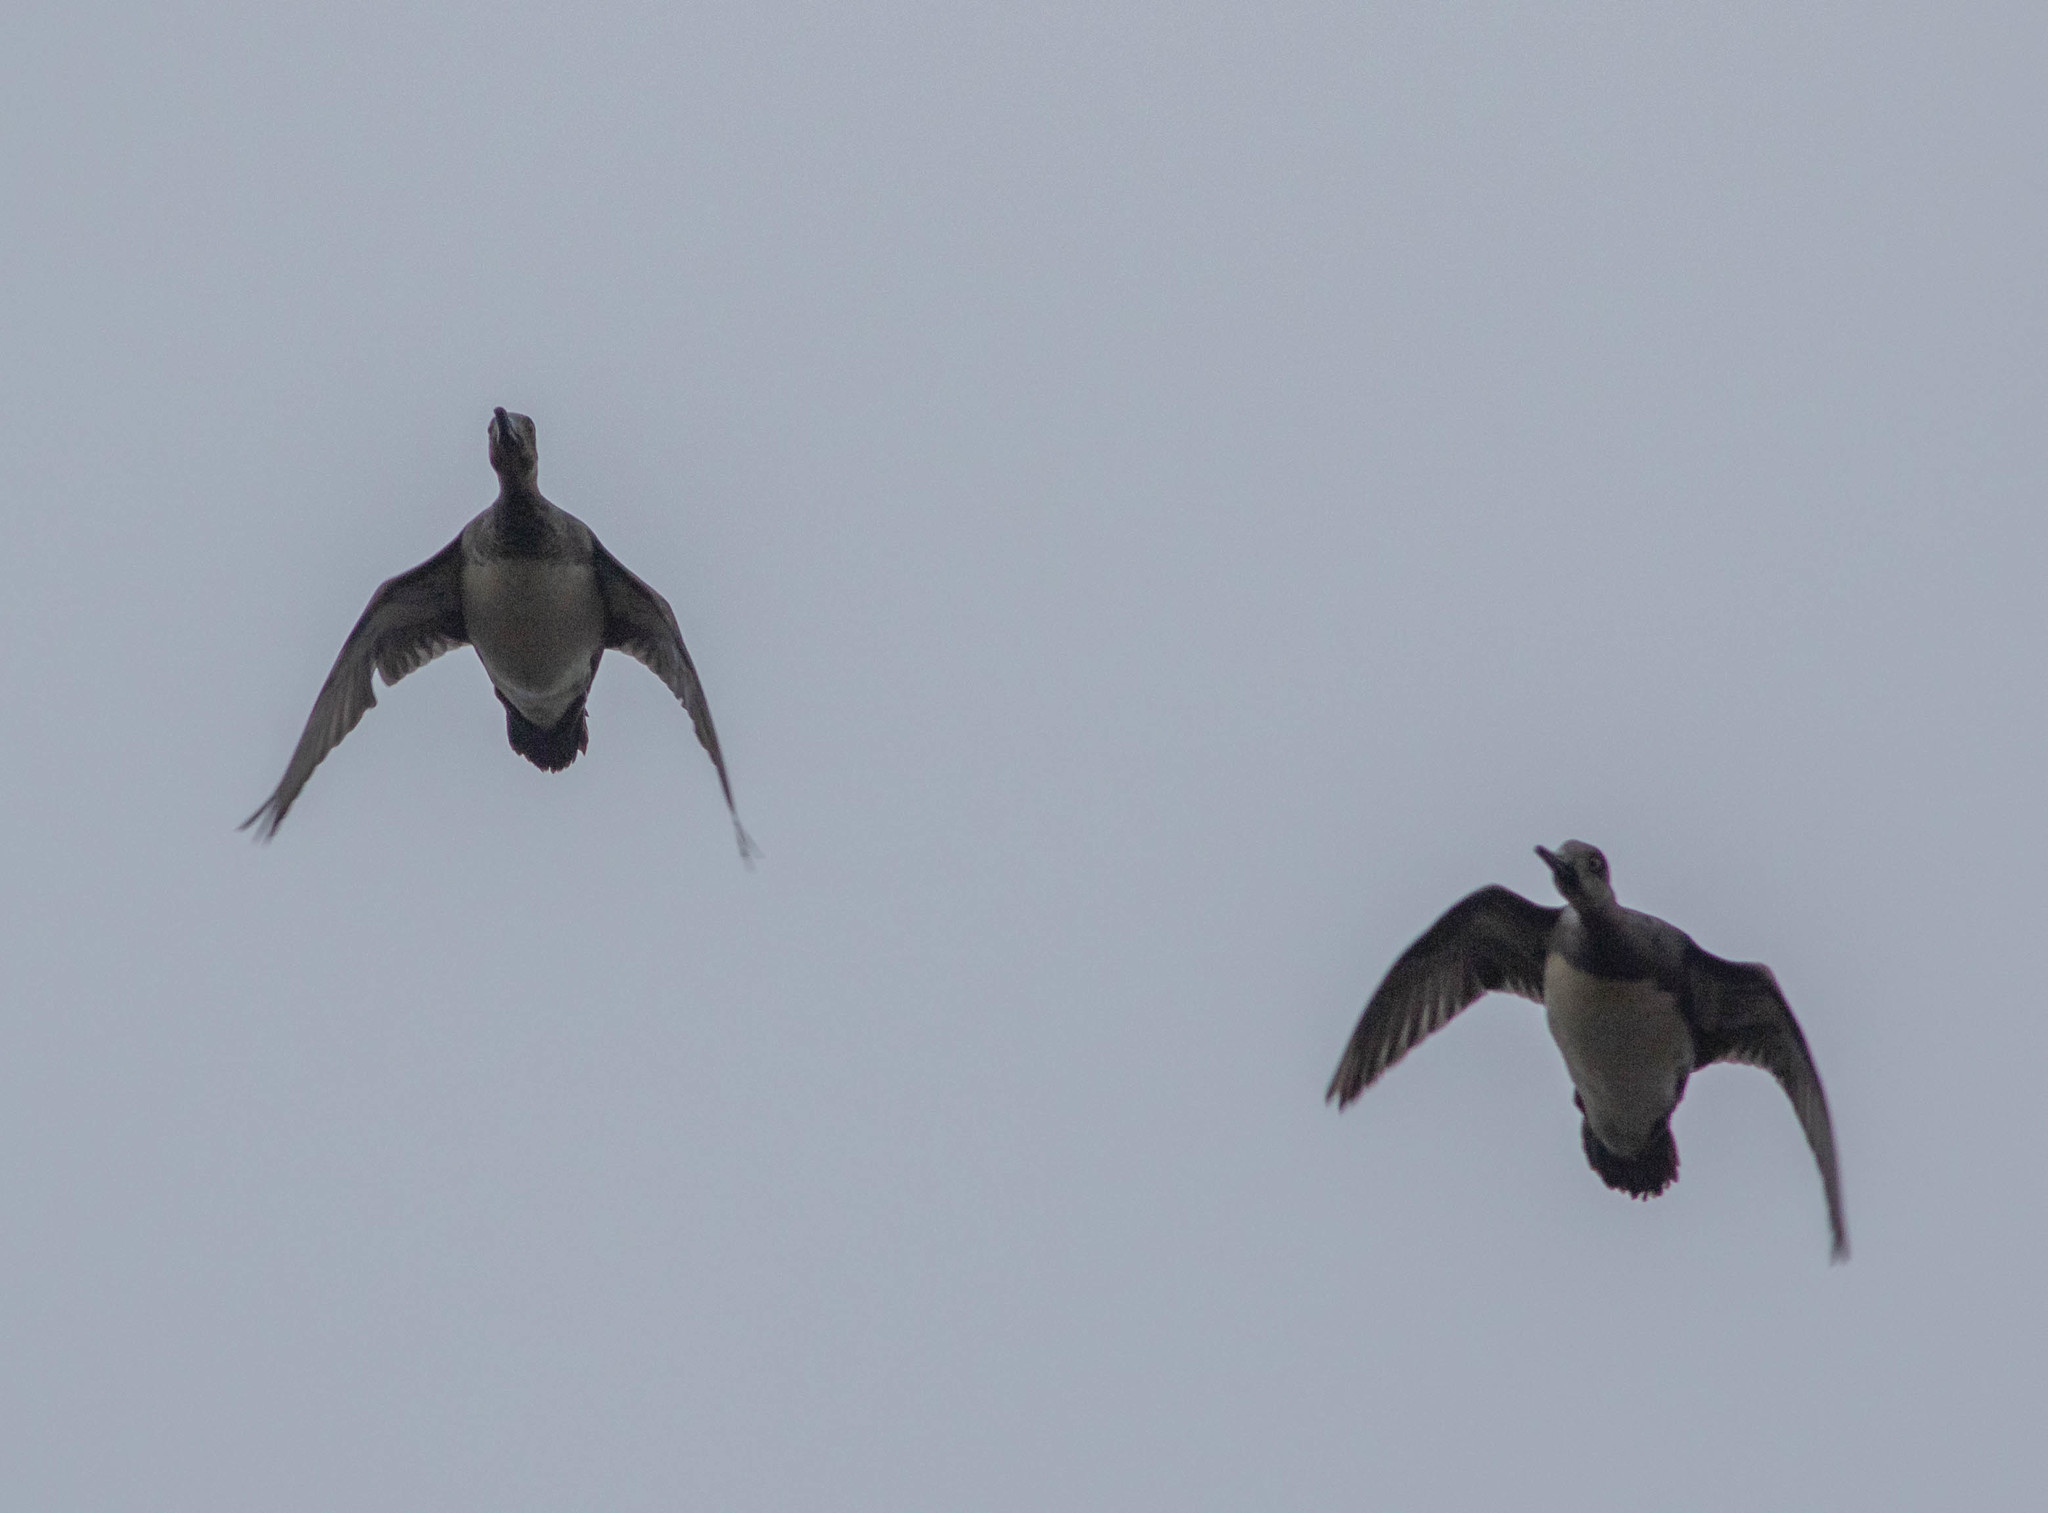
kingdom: Animalia
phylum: Chordata
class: Aves
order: Anseriformes
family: Anatidae
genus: Mareca
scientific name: Mareca americana
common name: American wigeon
